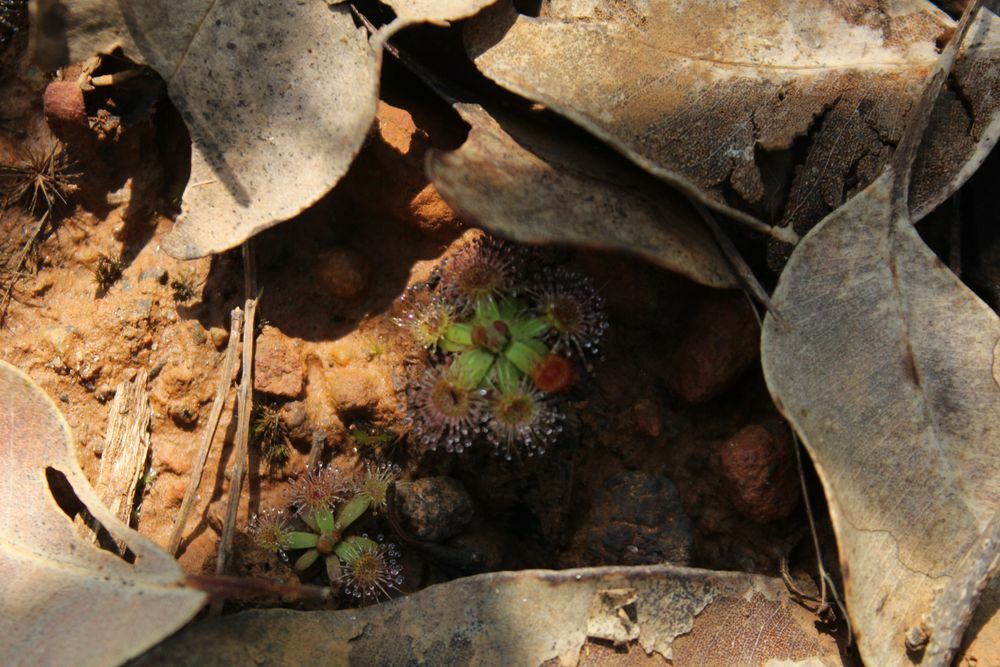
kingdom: Plantae
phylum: Tracheophyta
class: Magnoliopsida
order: Caryophyllales
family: Droseraceae
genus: Drosera
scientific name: Drosera pulchella
